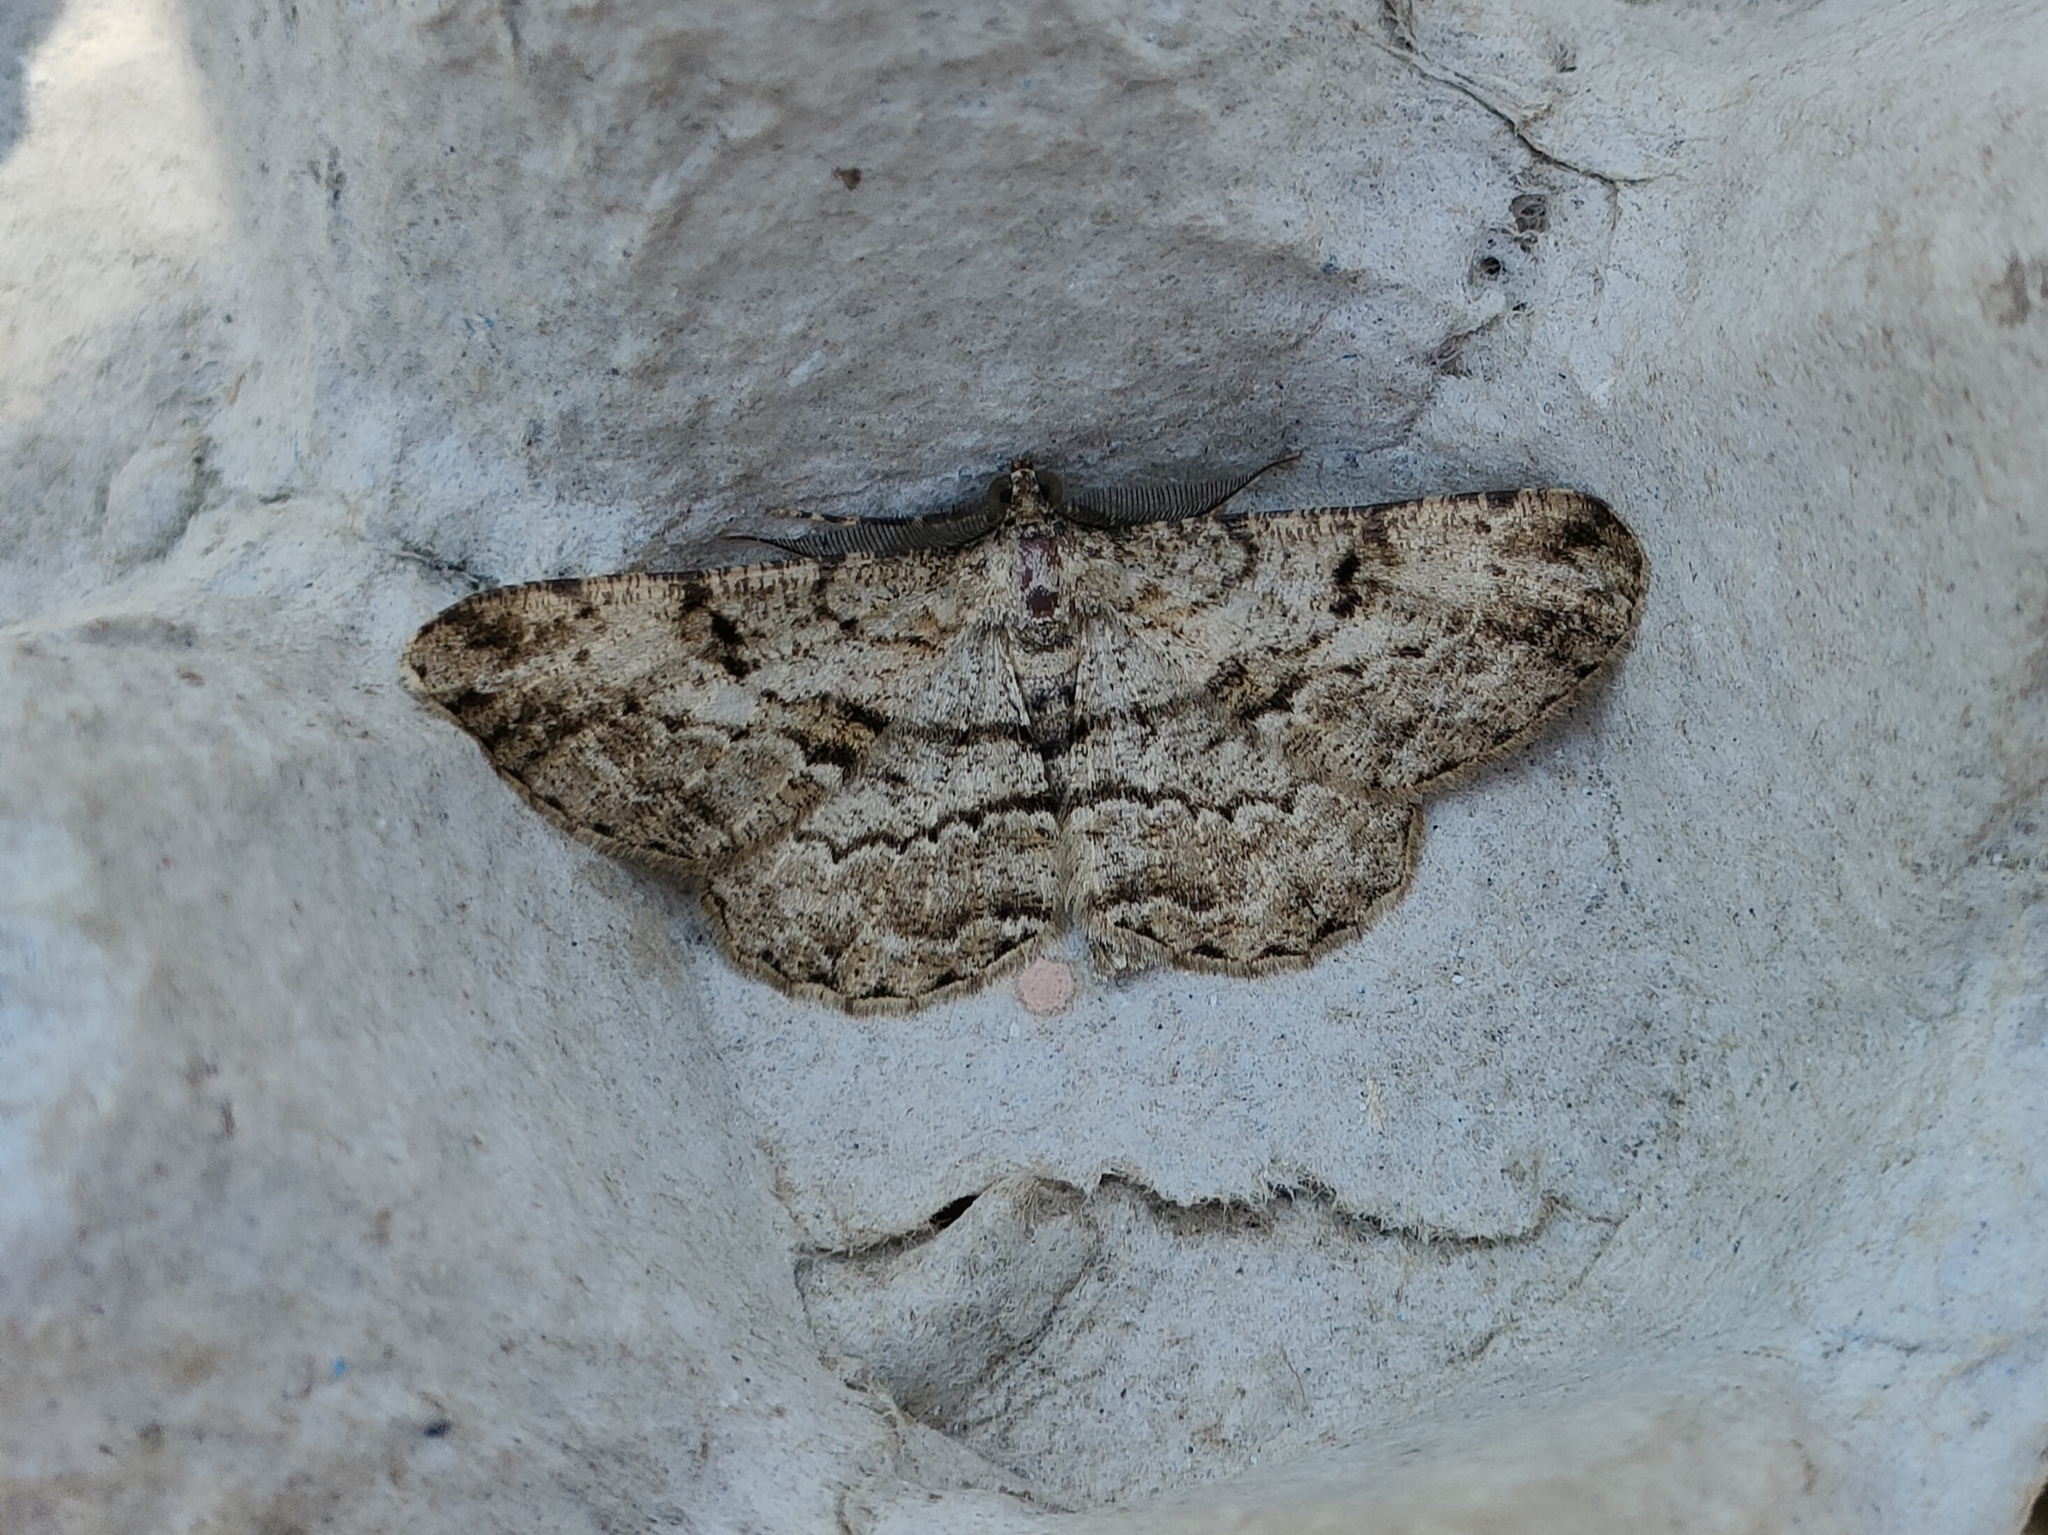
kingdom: Animalia
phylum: Arthropoda
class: Insecta
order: Lepidoptera
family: Geometridae
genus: Peribatodes
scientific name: Peribatodes rhomboidaria
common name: Willow beauty
